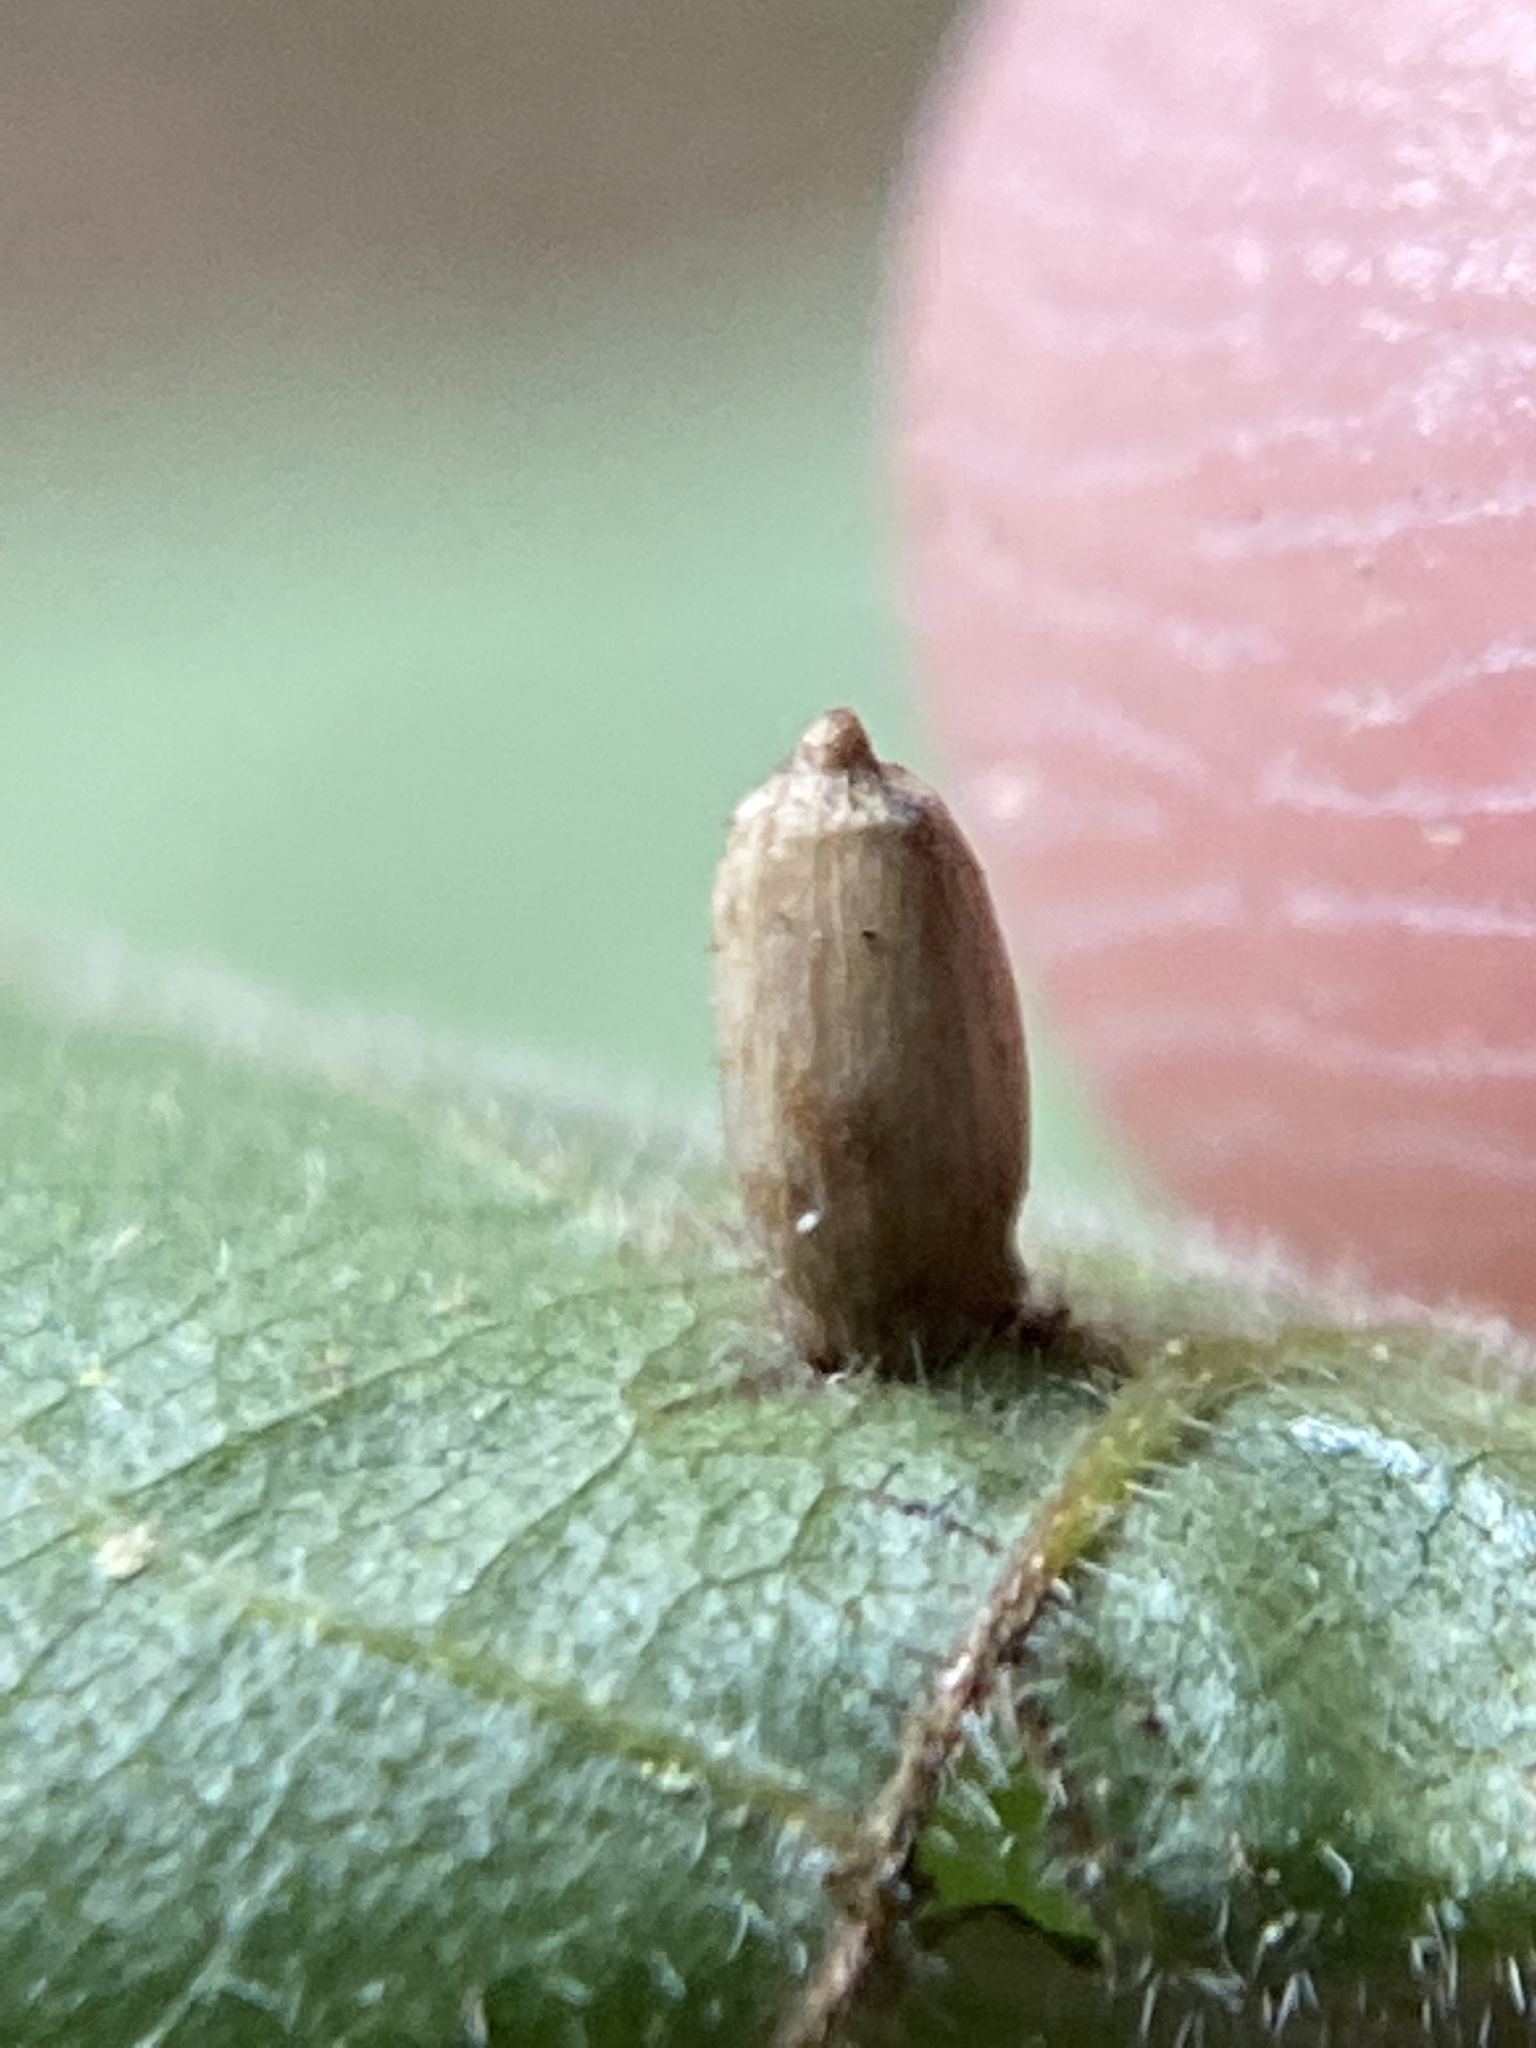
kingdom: Animalia
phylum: Arthropoda
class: Insecta
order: Diptera
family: Cecidomyiidae
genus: Caryomyia
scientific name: Caryomyia urnula
